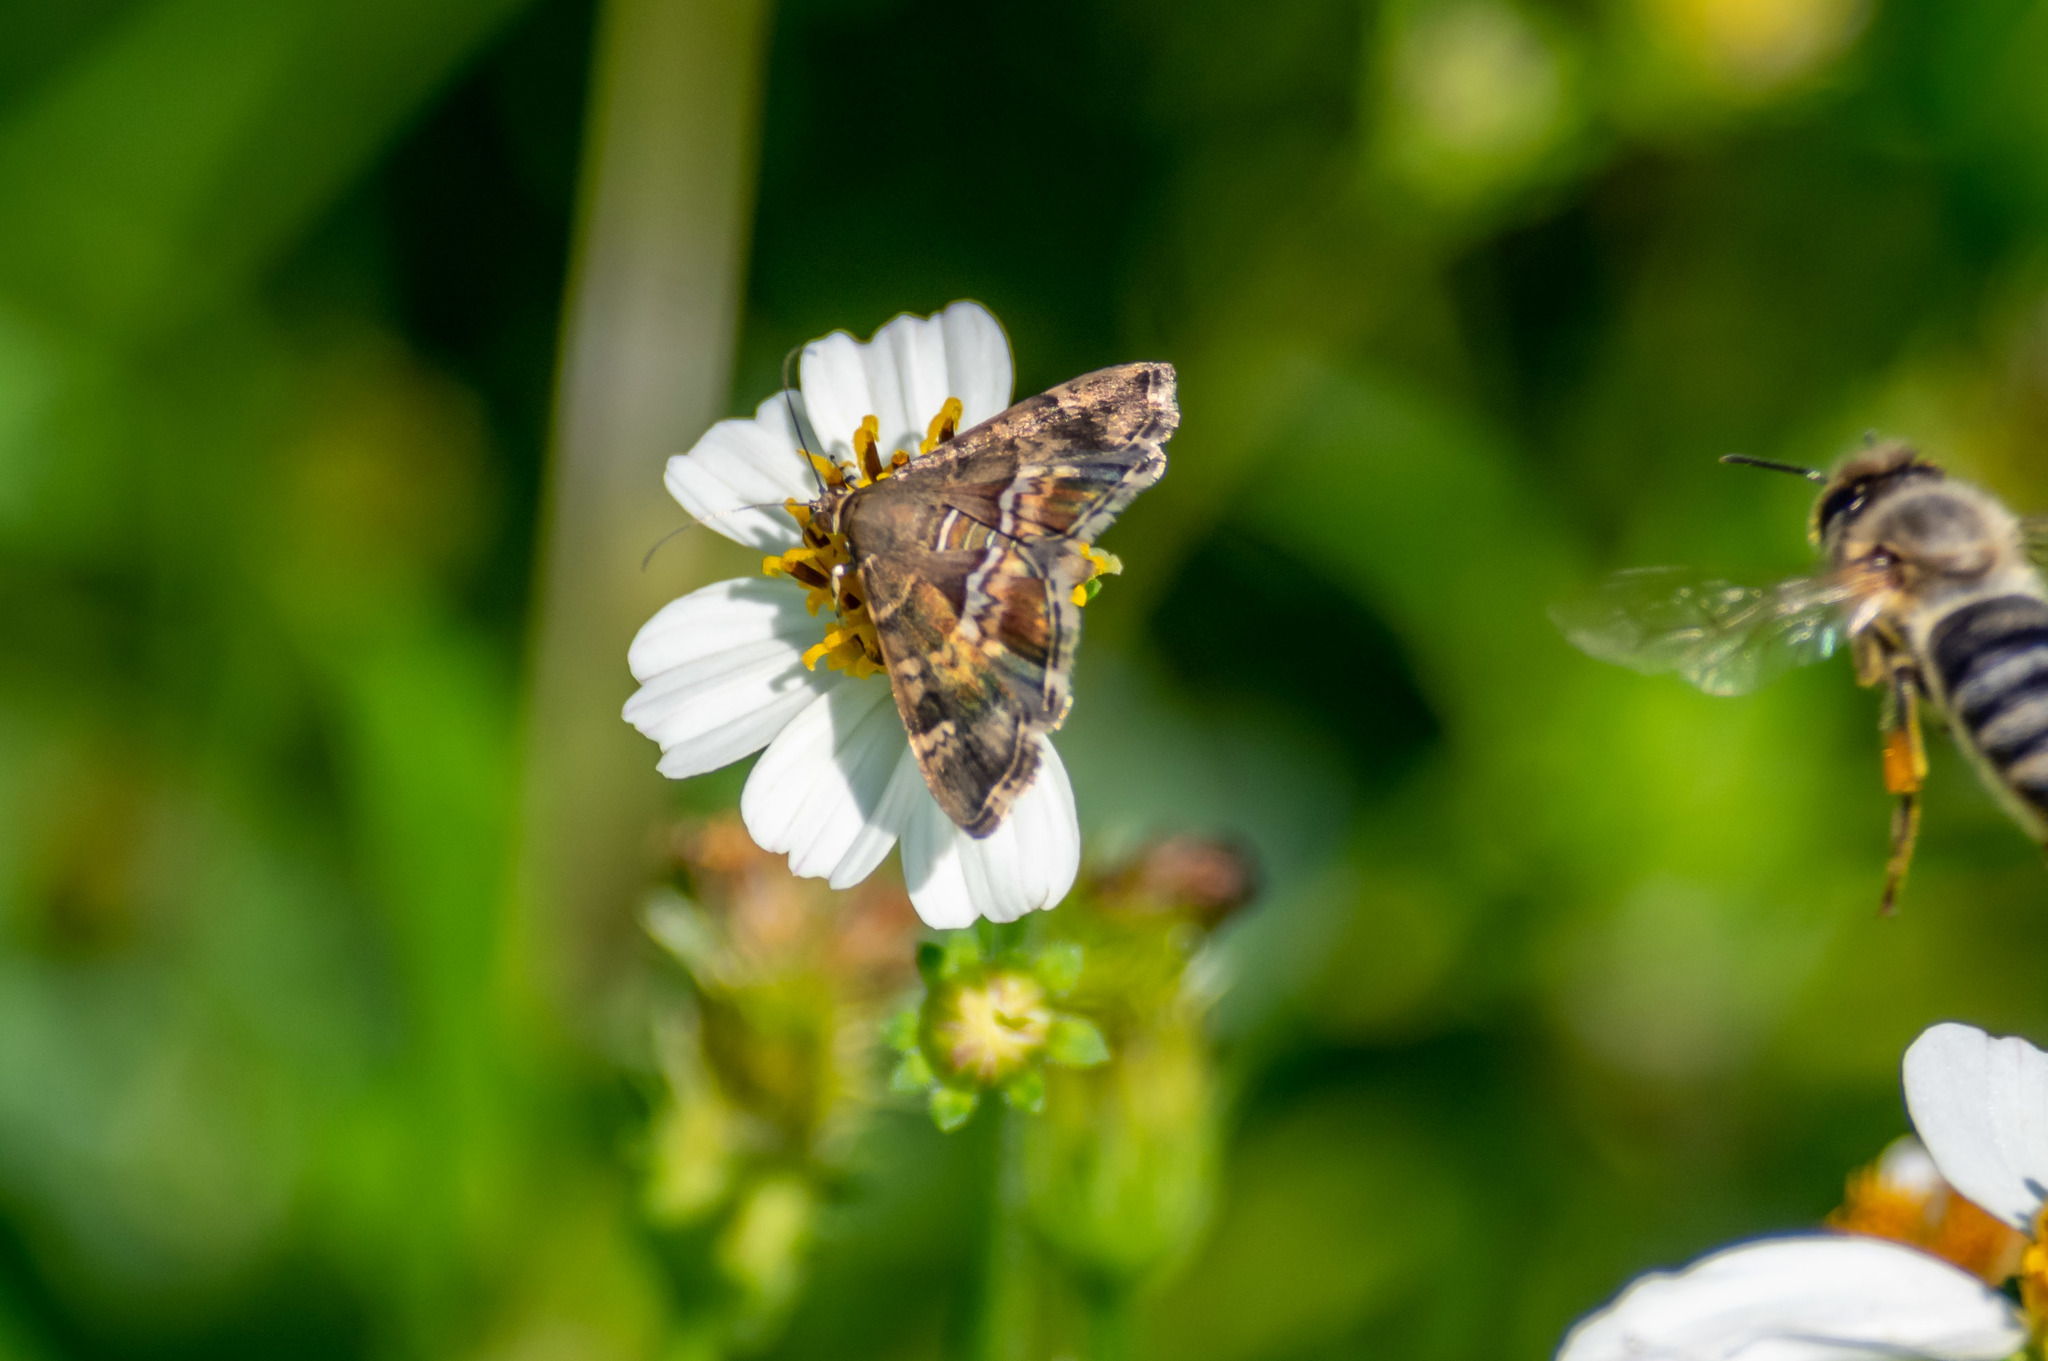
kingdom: Animalia
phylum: Arthropoda
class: Insecta
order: Lepidoptera
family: Crambidae
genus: Hymenia
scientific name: Hymenia perspectalis
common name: Spotted beet webworm
